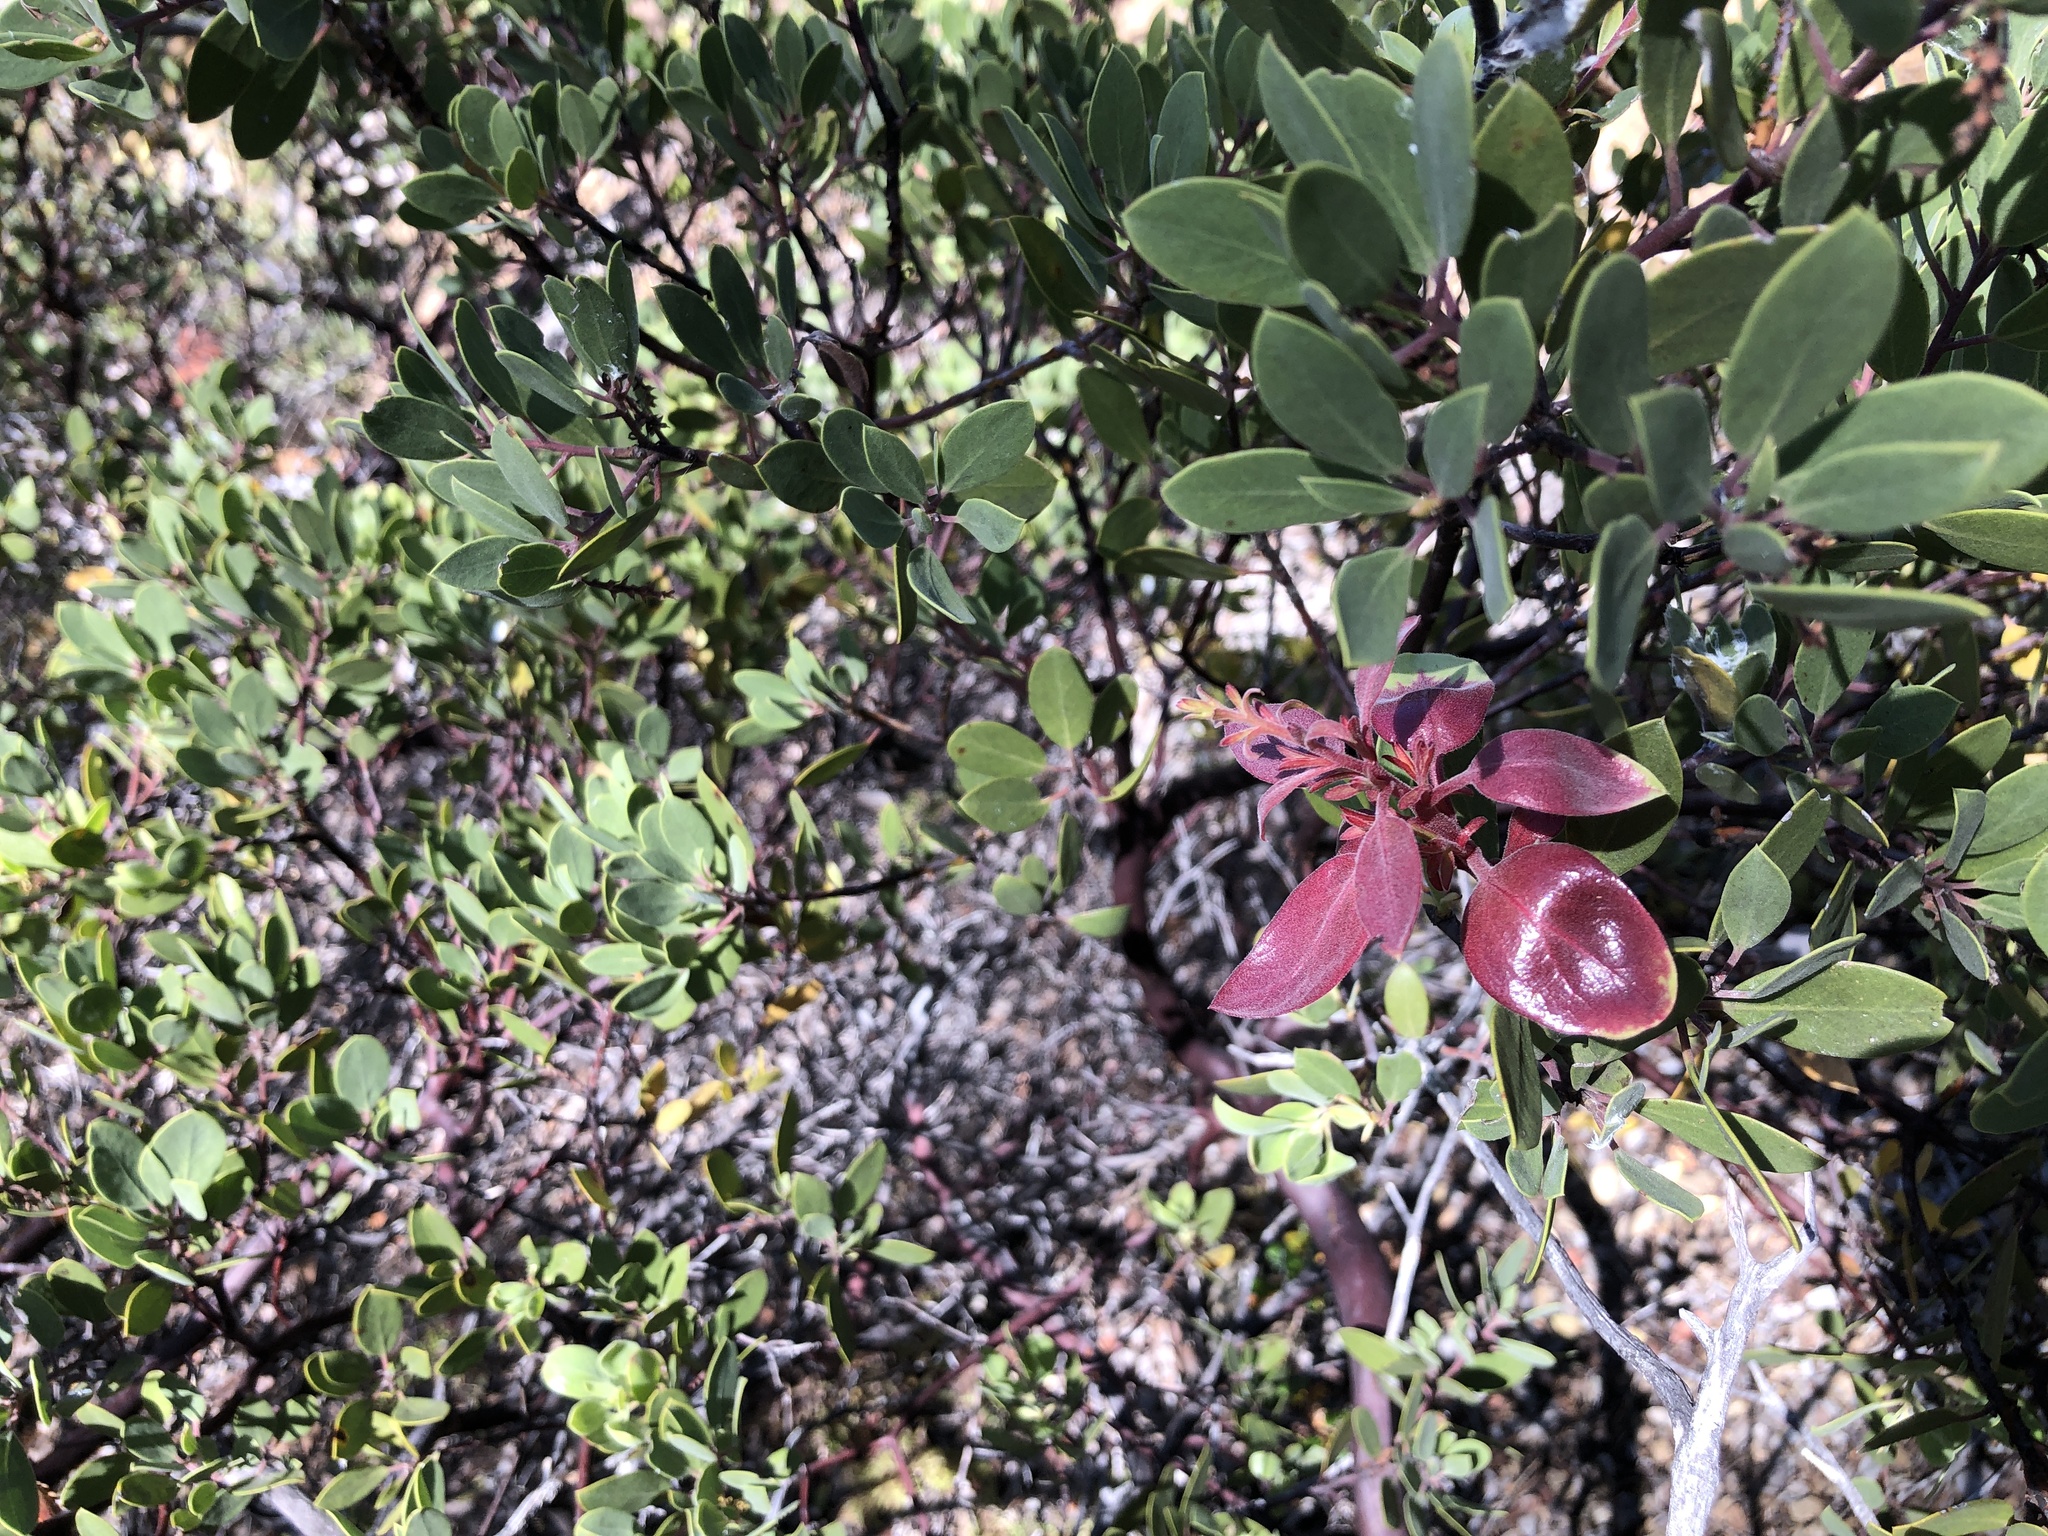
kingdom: Plantae
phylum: Tracheophyta
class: Magnoliopsida
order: Ericales
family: Ericaceae
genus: Arctostaphylos
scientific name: Arctostaphylos bakeri
